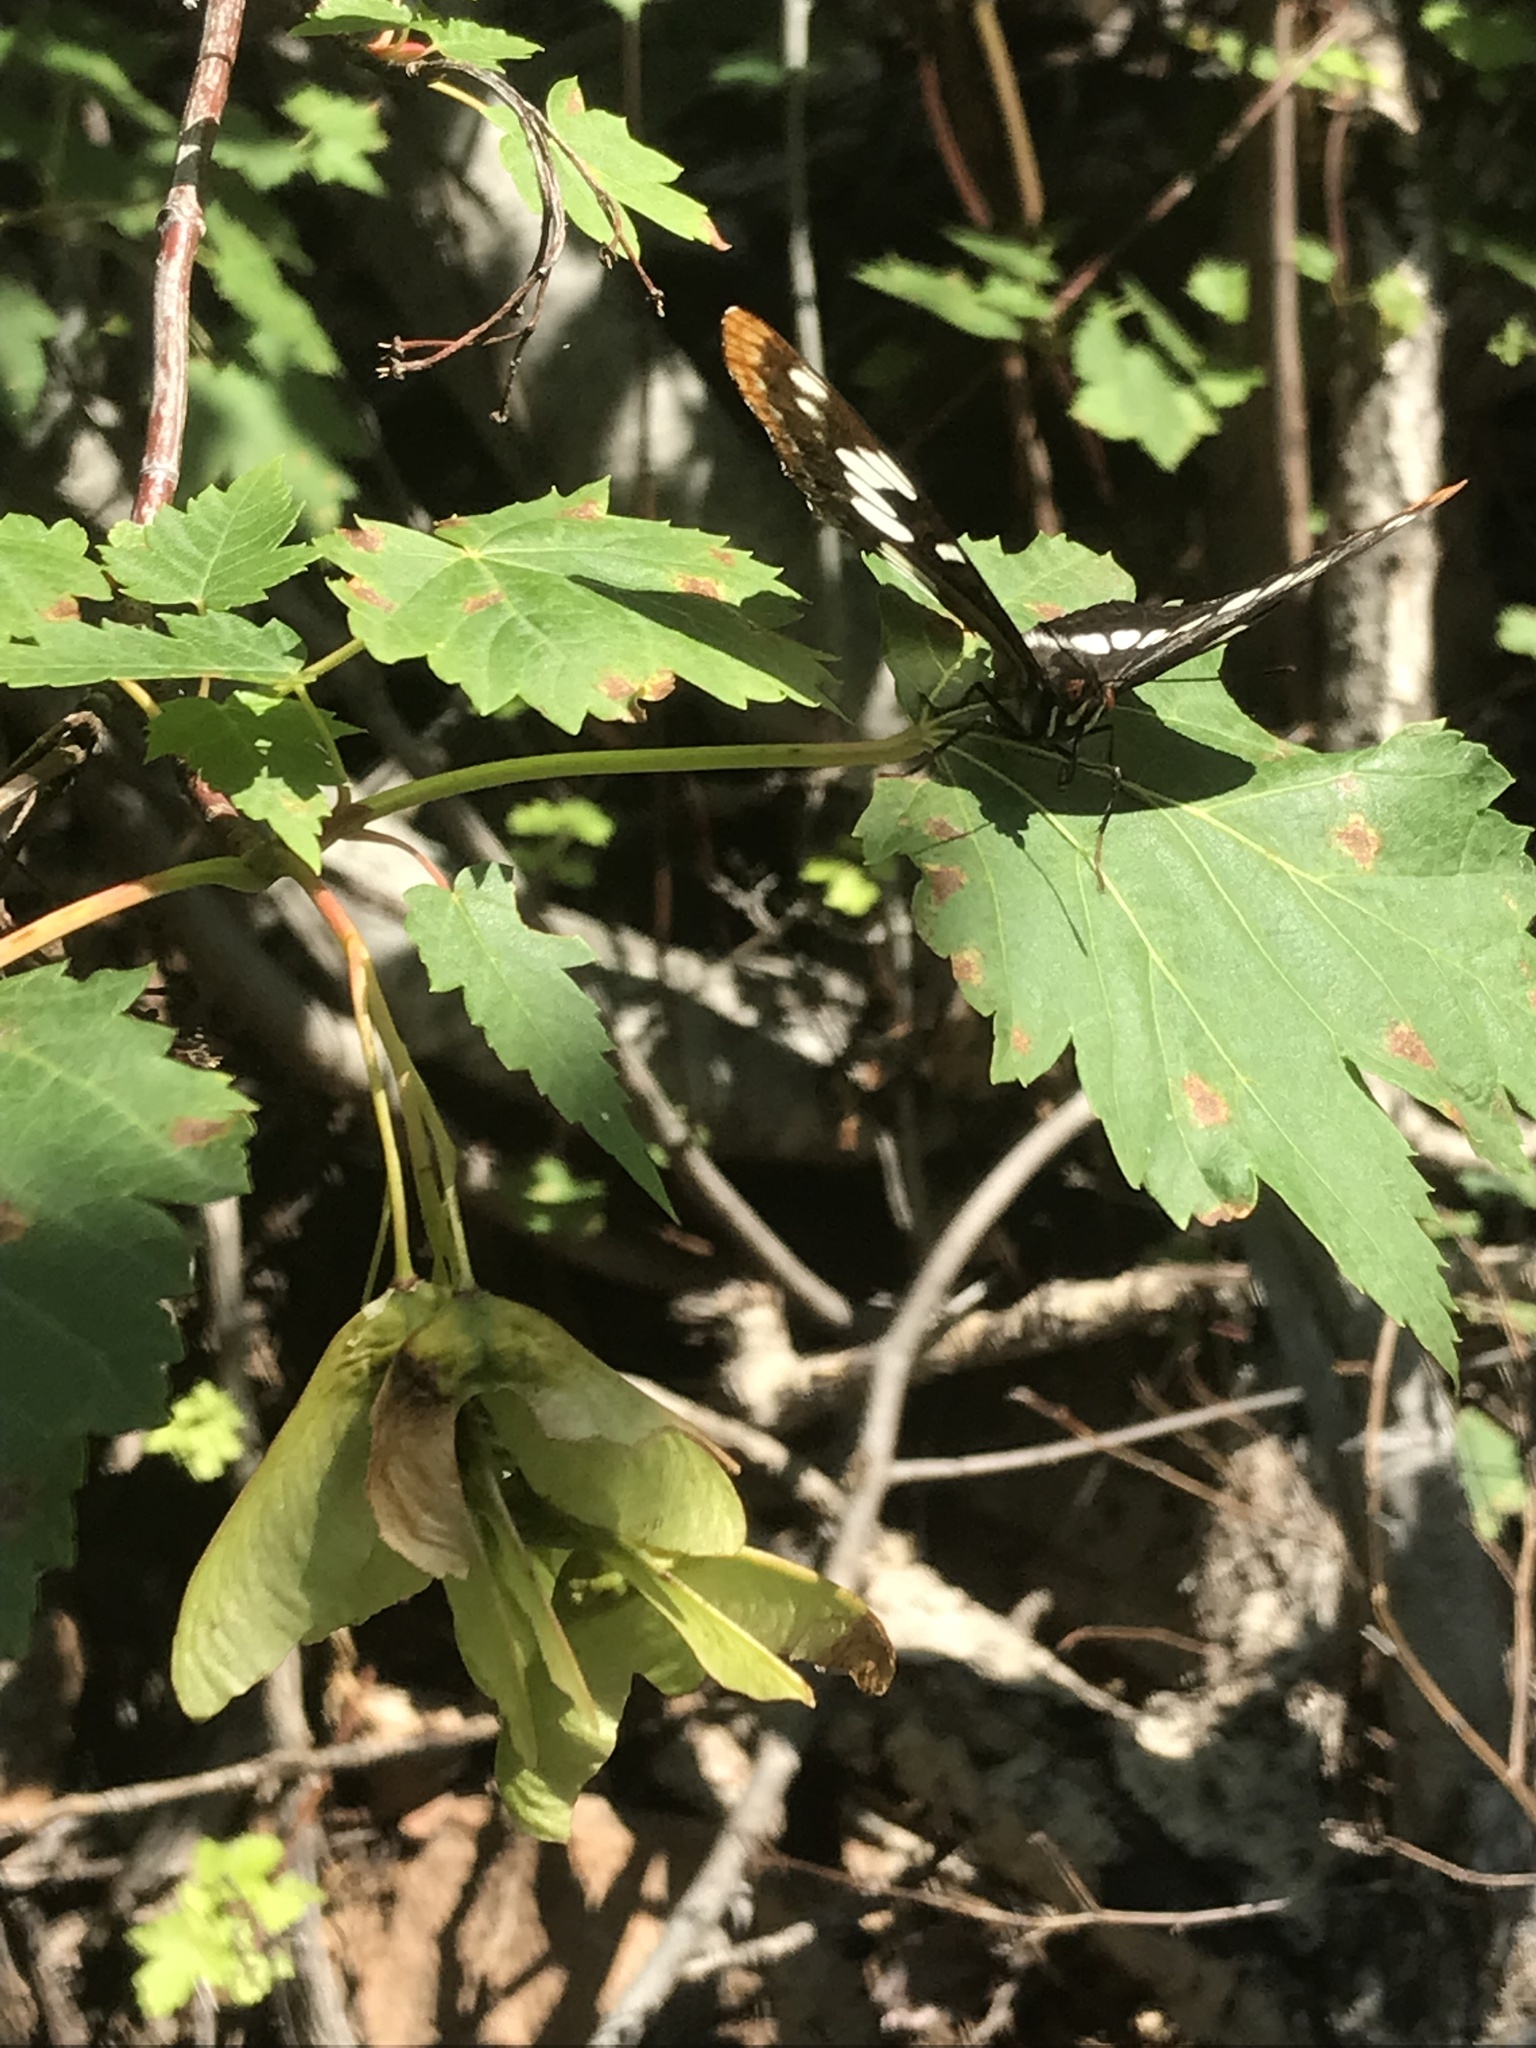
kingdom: Animalia
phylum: Arthropoda
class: Insecta
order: Lepidoptera
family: Nymphalidae
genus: Limenitis
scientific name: Limenitis lorquini
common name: Lorquin's admiral
